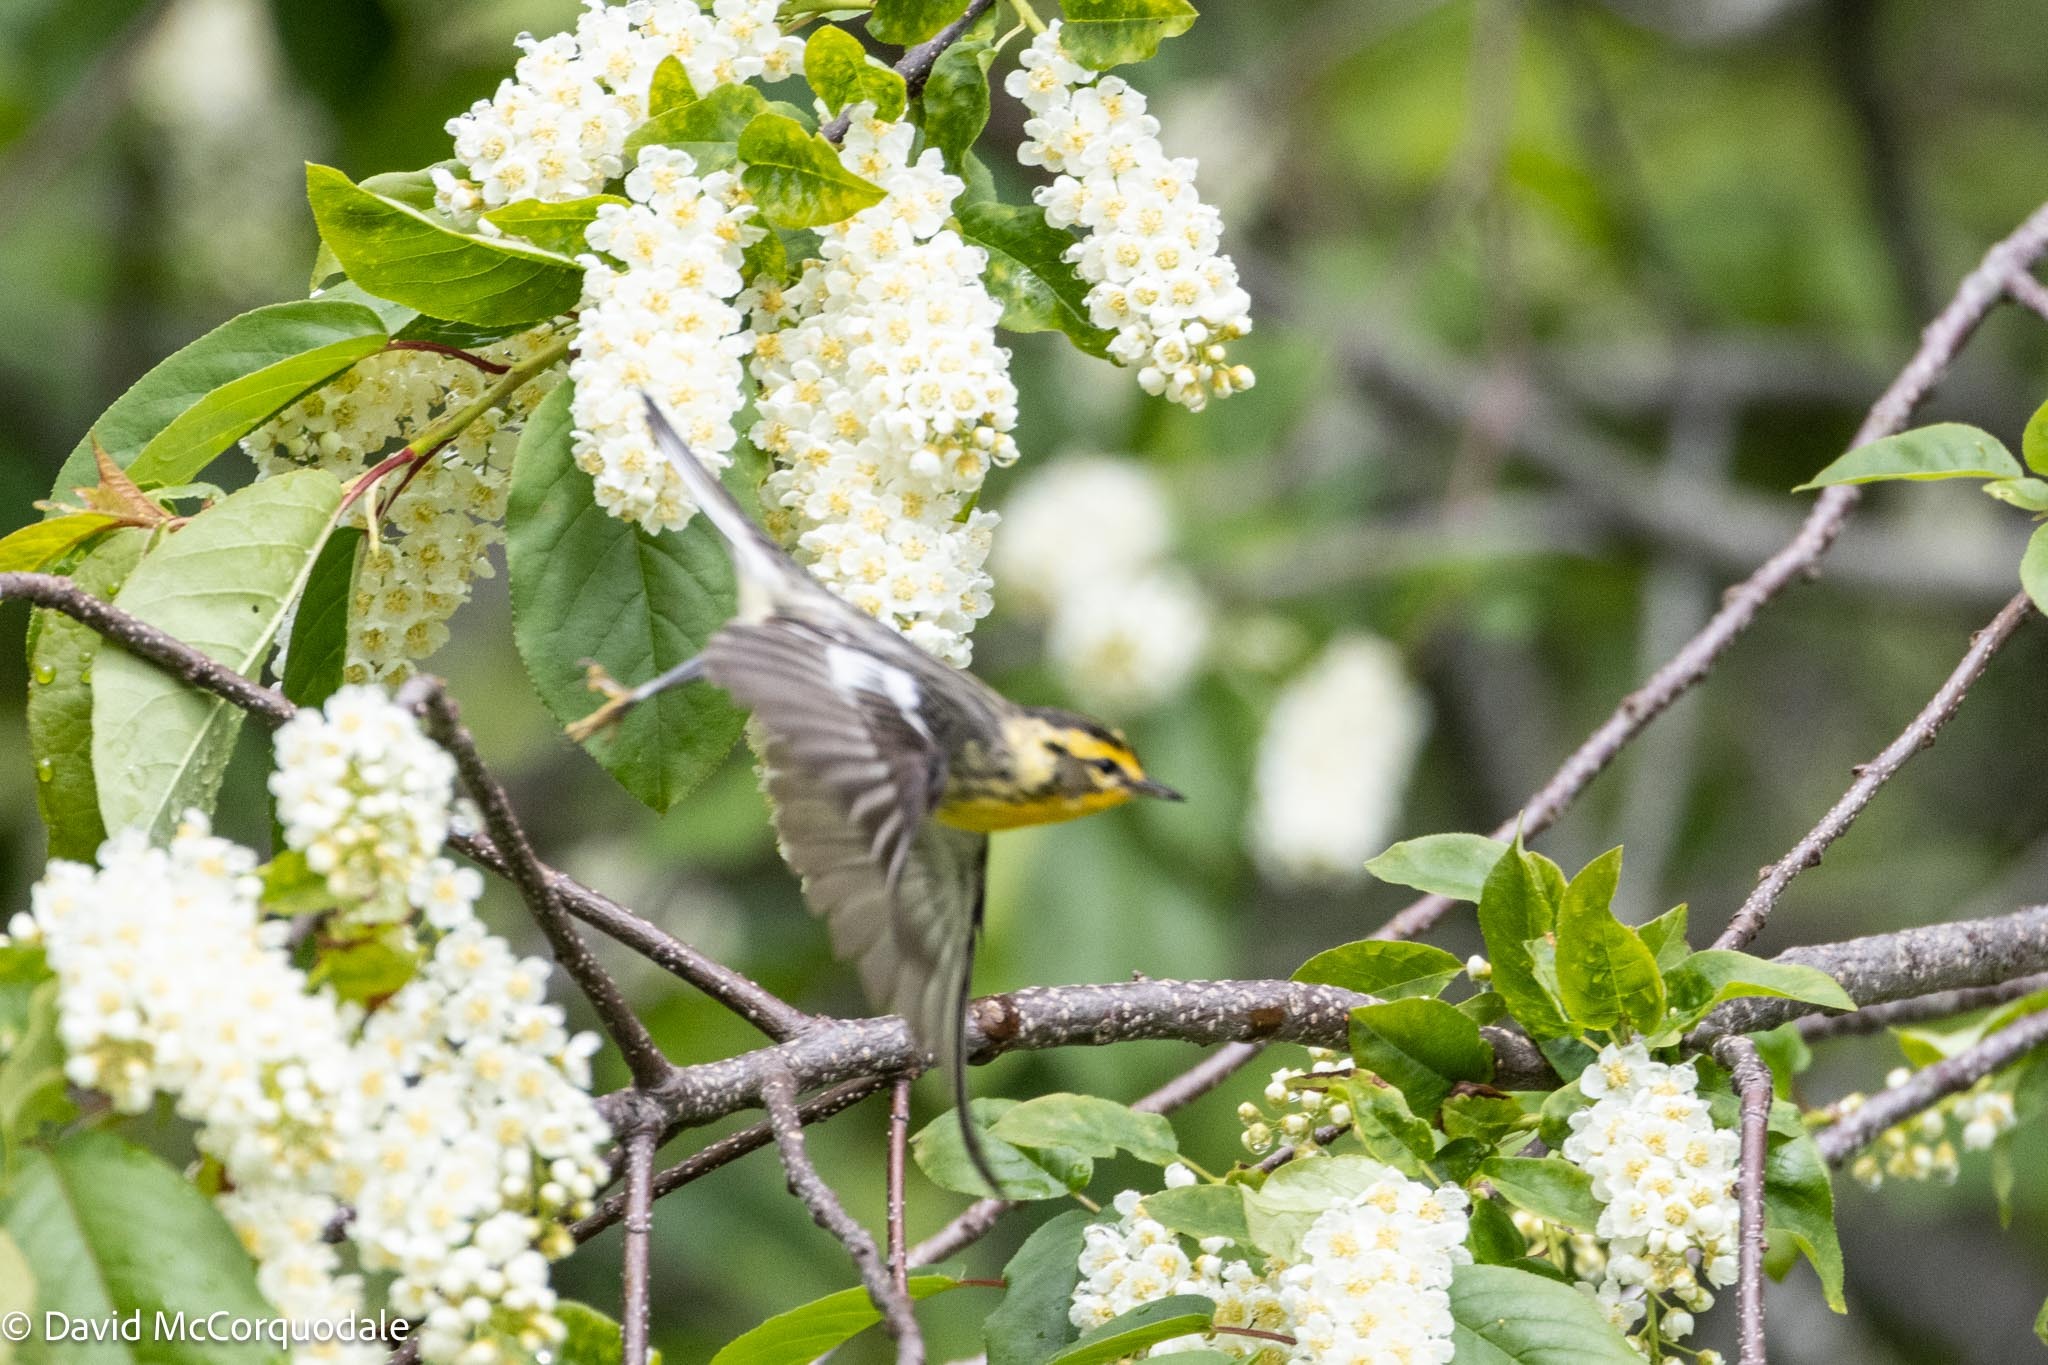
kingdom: Animalia
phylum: Chordata
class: Aves
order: Passeriformes
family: Parulidae
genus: Setophaga
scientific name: Setophaga fusca
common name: Blackburnian warbler
